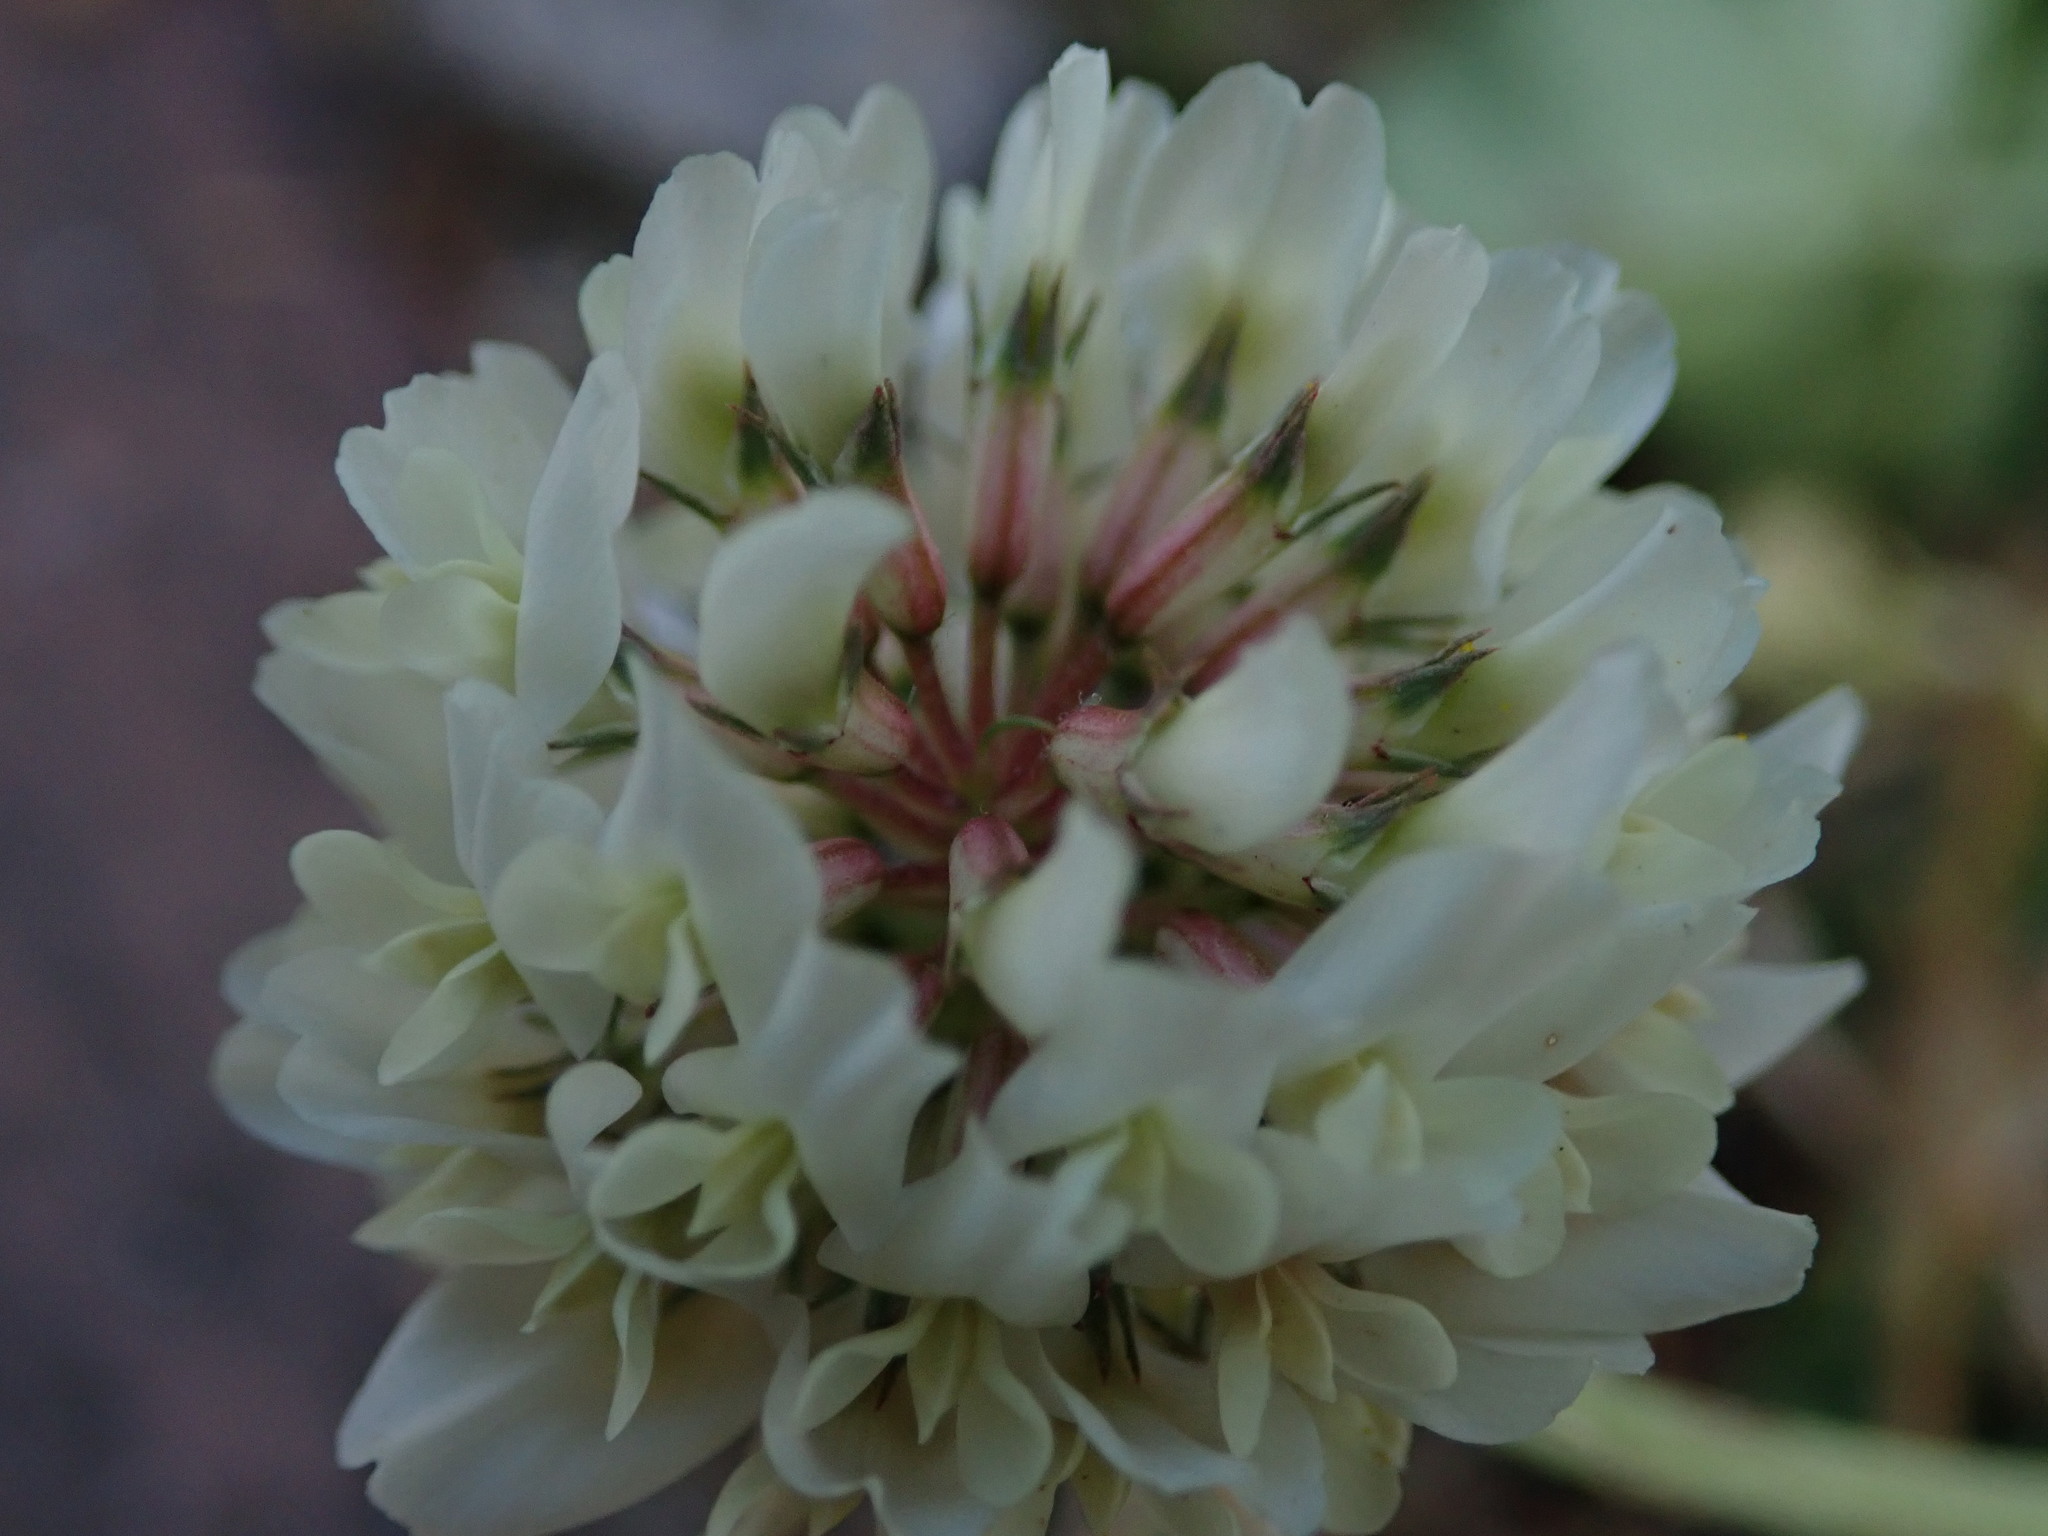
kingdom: Plantae
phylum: Tracheophyta
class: Magnoliopsida
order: Fabales
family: Fabaceae
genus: Trifolium
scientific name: Trifolium repens
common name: White clover
